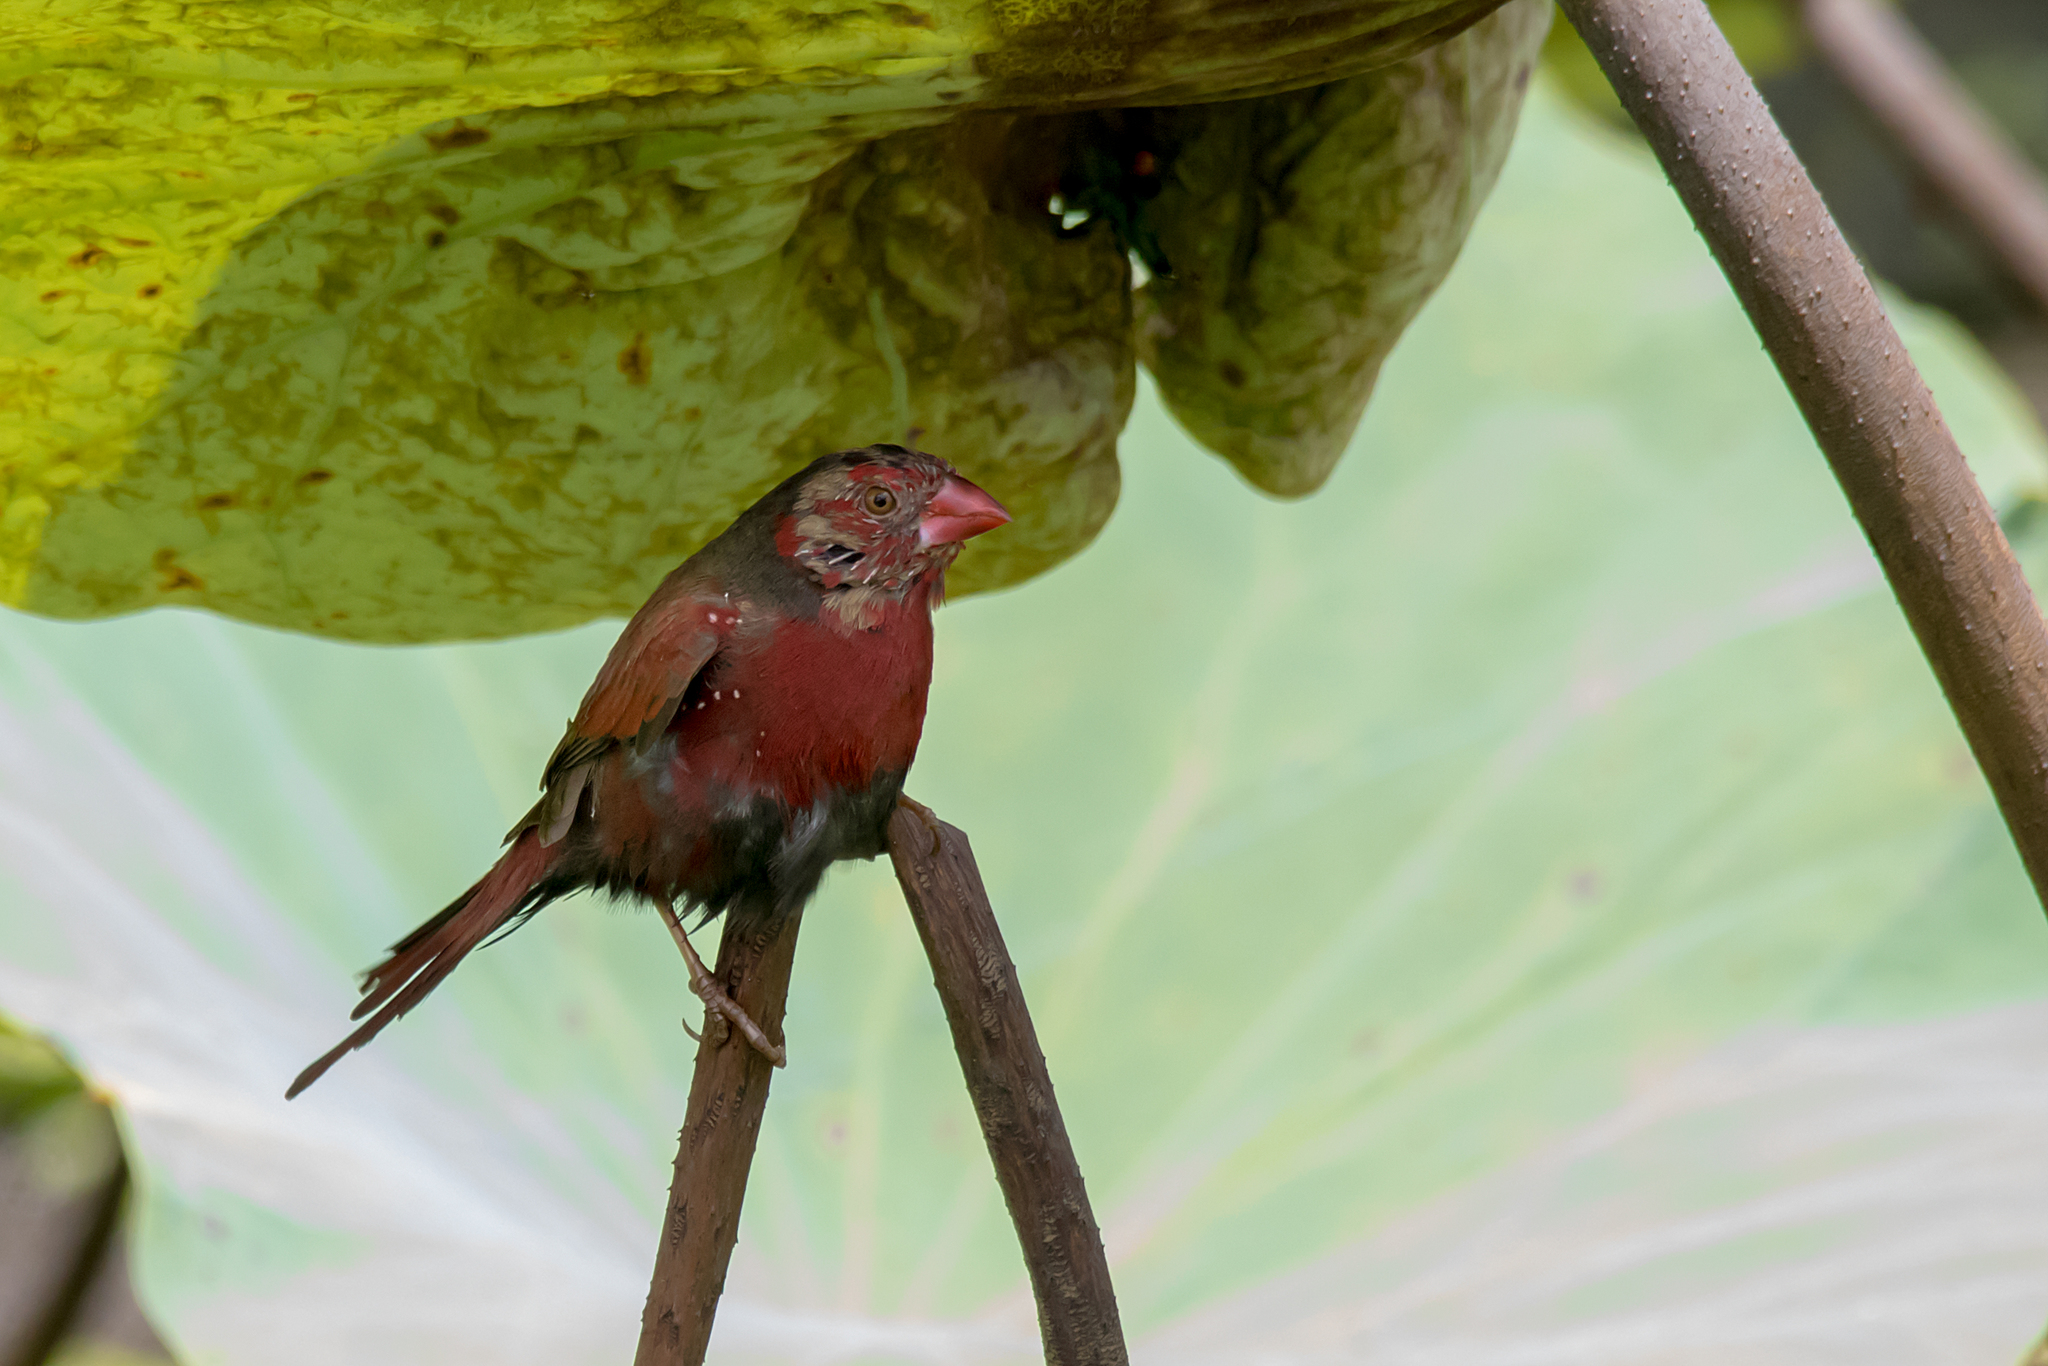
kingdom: Animalia
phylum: Chordata
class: Aves
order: Passeriformes
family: Estrildidae
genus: Neochmia
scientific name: Neochmia phaeton
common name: Crimson finch
